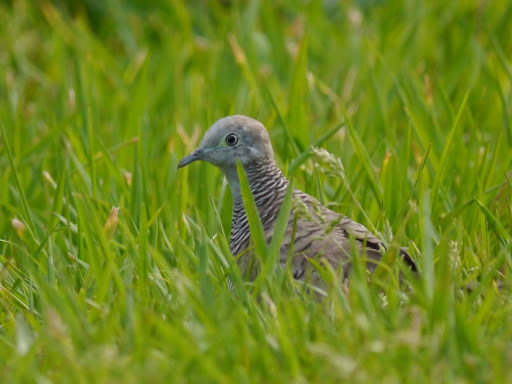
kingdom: Animalia
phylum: Chordata
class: Aves
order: Columbiformes
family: Columbidae
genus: Geopelia
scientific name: Geopelia striata
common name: Zebra dove
